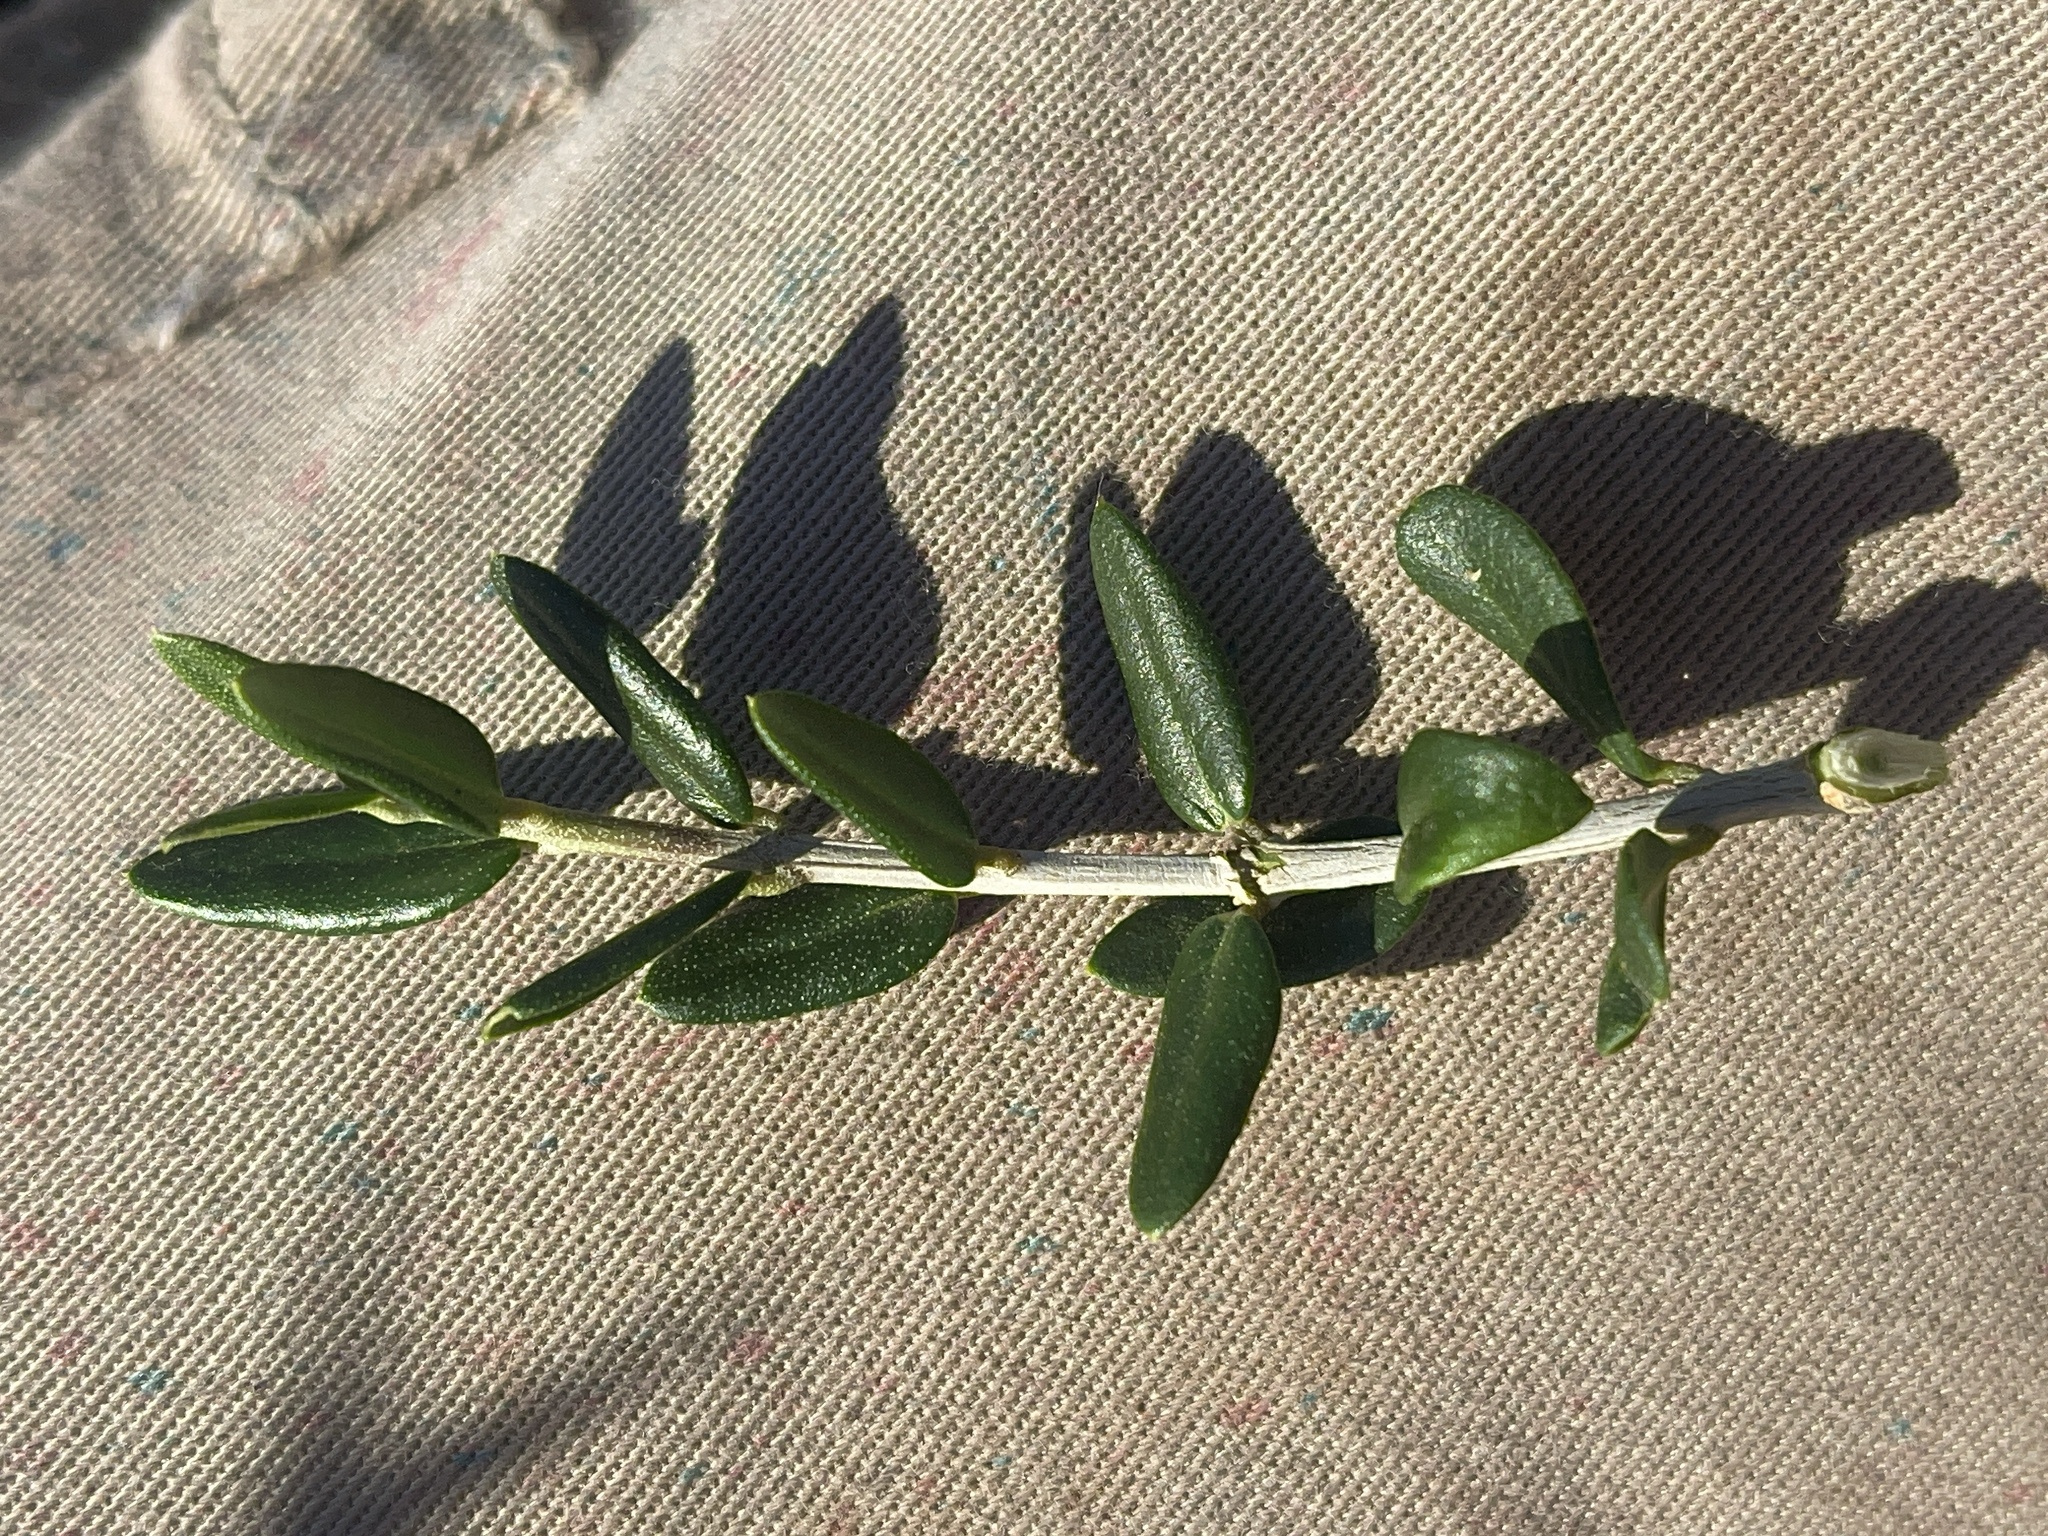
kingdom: Plantae
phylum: Tracheophyta
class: Magnoliopsida
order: Lamiales
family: Oleaceae
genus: Olea
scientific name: Olea europaea
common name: Olive
